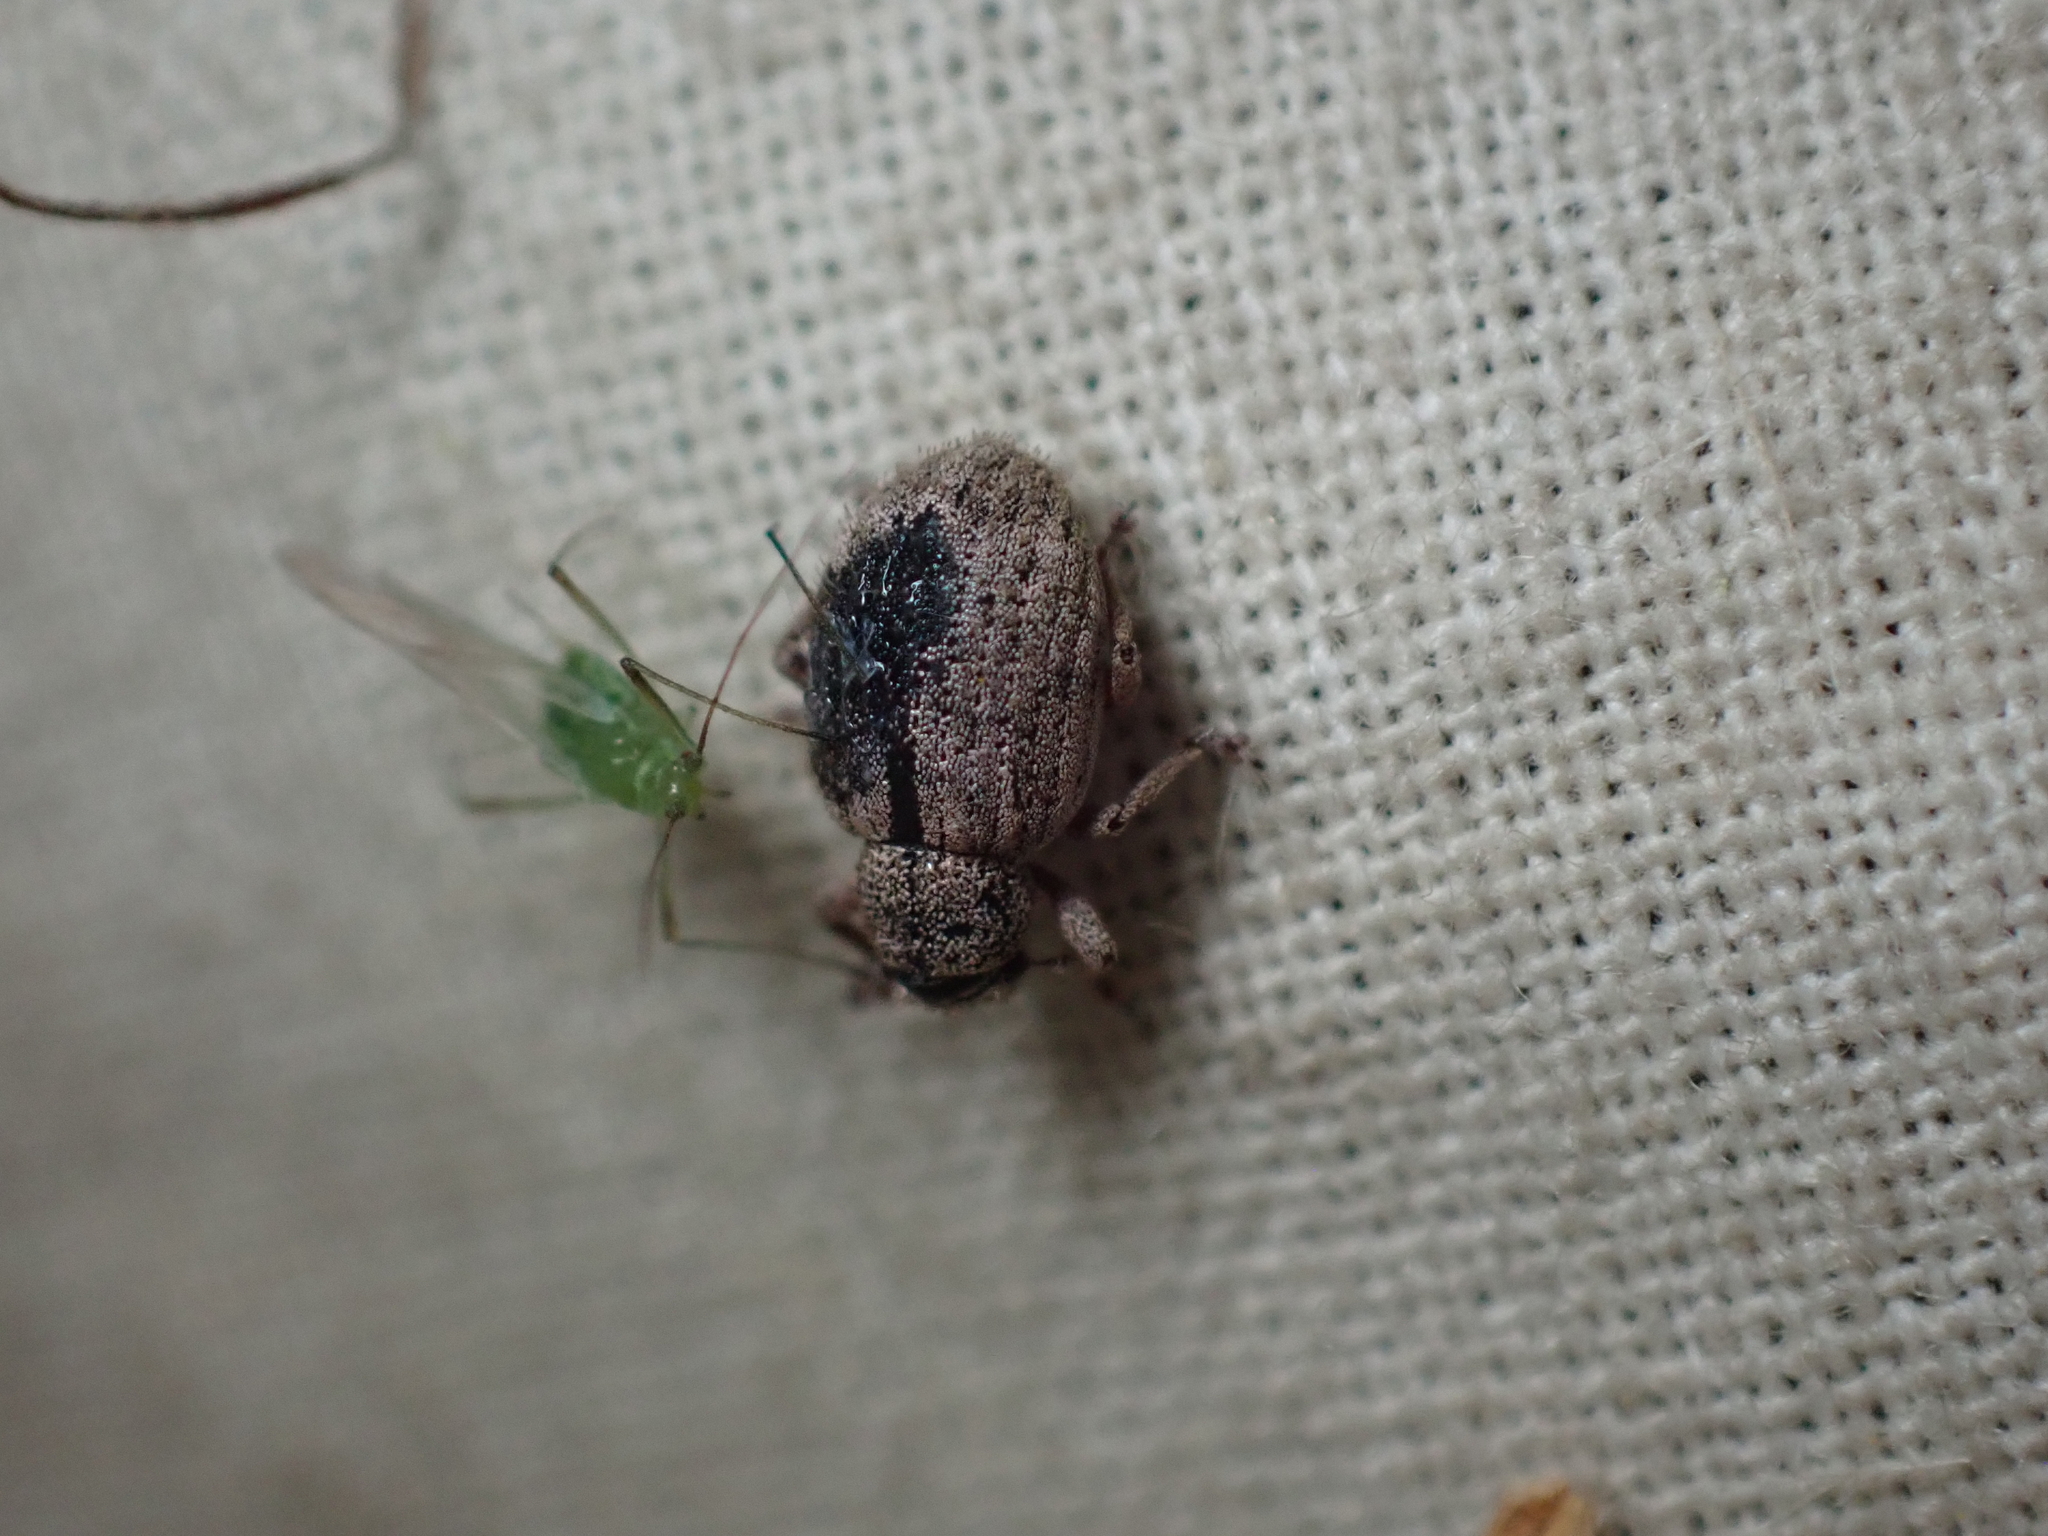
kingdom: Animalia
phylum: Arthropoda
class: Insecta
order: Coleoptera
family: Curculionidae
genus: Strophosoma
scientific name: Strophosoma melanogrammum
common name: Weevil
